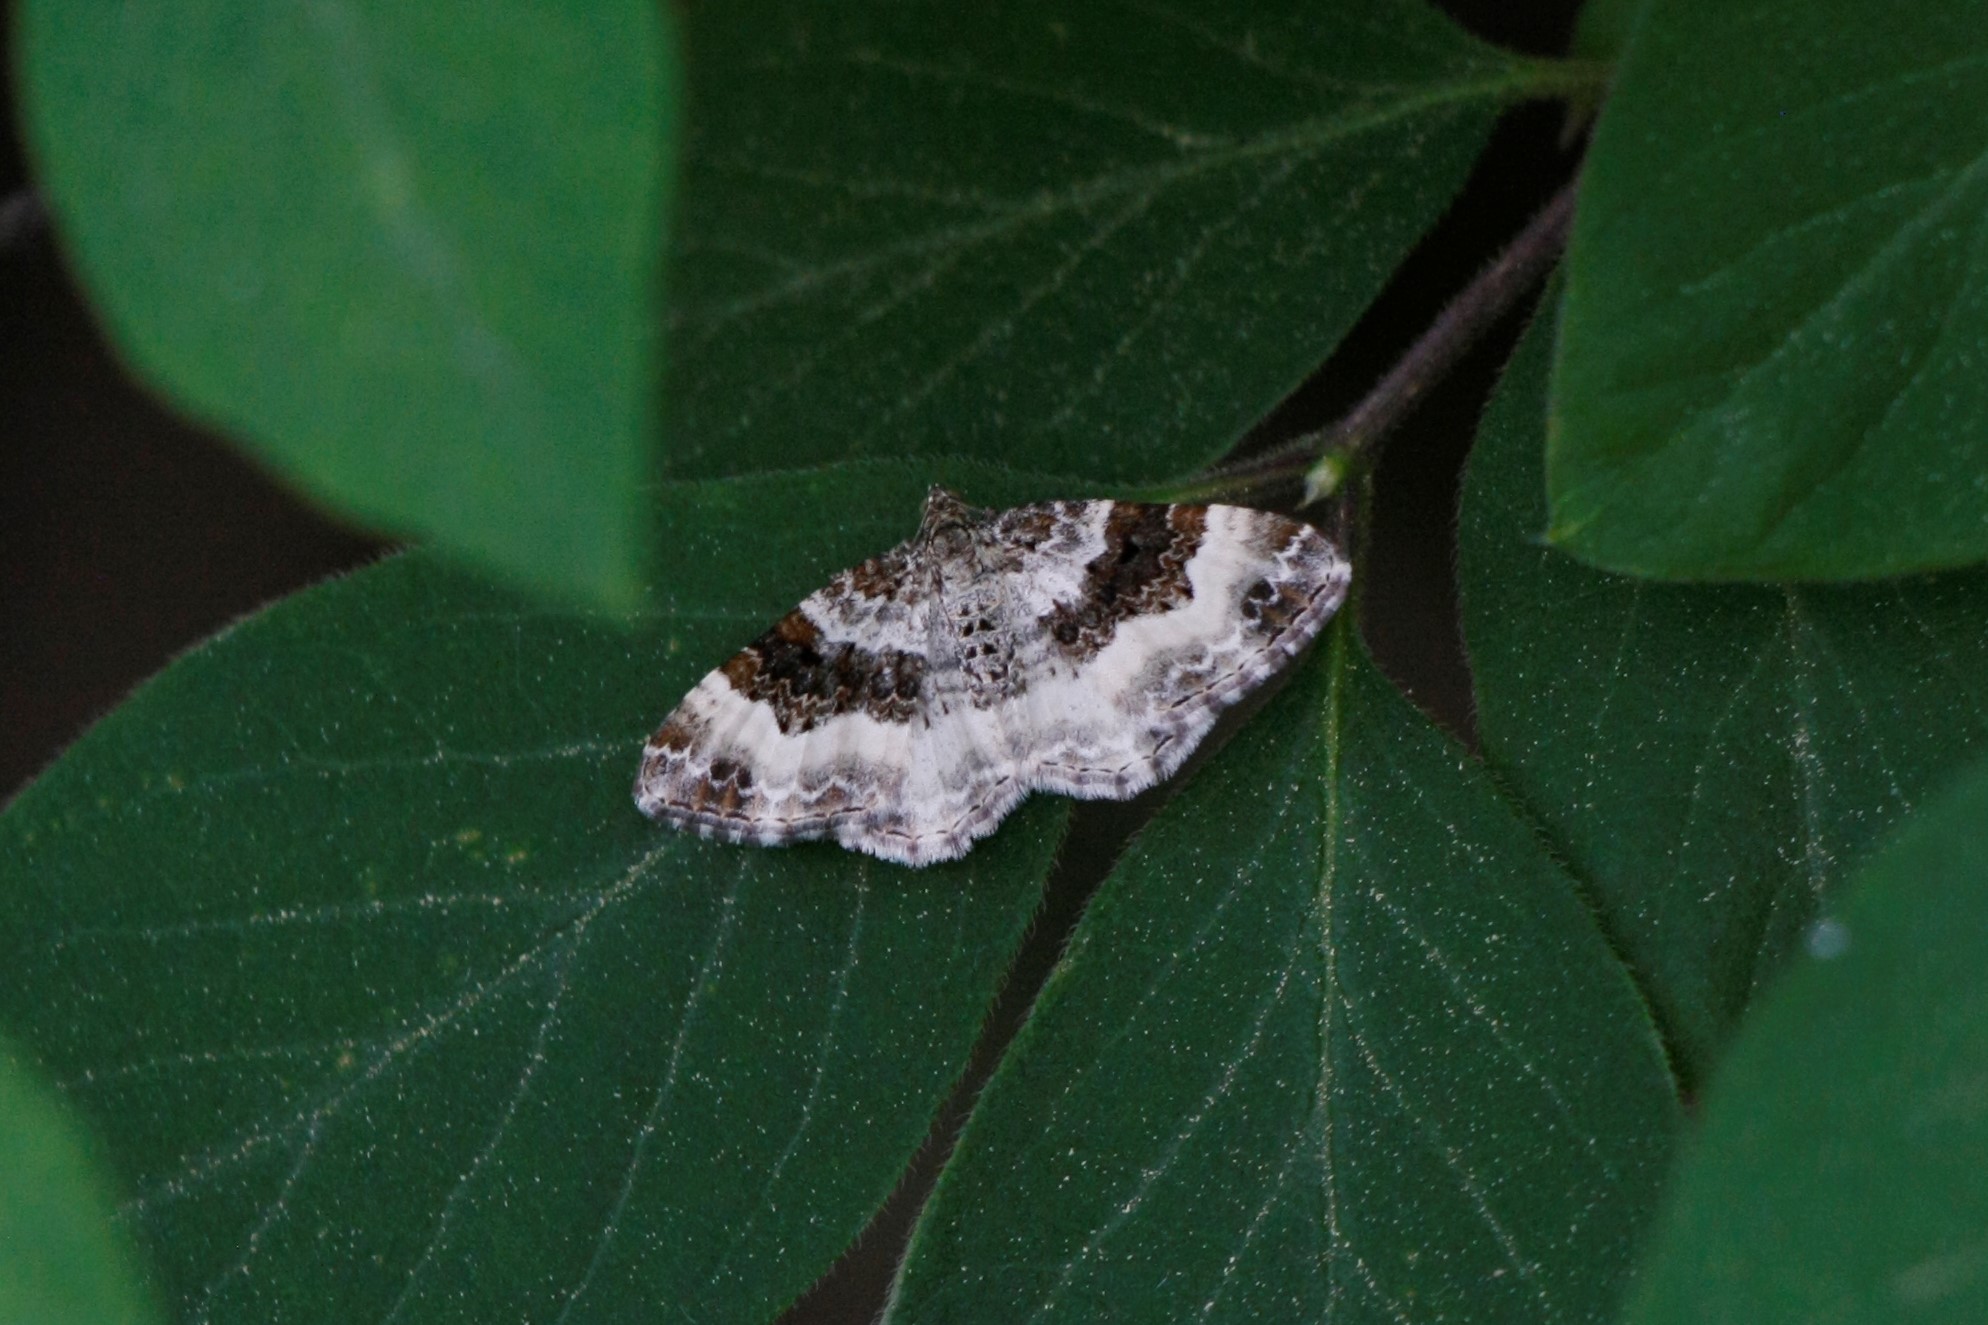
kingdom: Animalia
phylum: Arthropoda
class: Insecta
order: Lepidoptera
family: Geometridae
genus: Epirrhoe
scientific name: Epirrhoe alternata
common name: Common carpet
